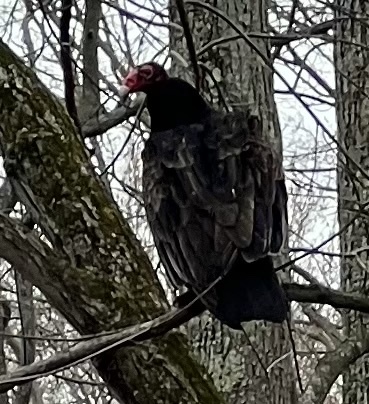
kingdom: Animalia
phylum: Chordata
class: Aves
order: Accipitriformes
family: Cathartidae
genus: Cathartes
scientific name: Cathartes aura
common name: Turkey vulture
